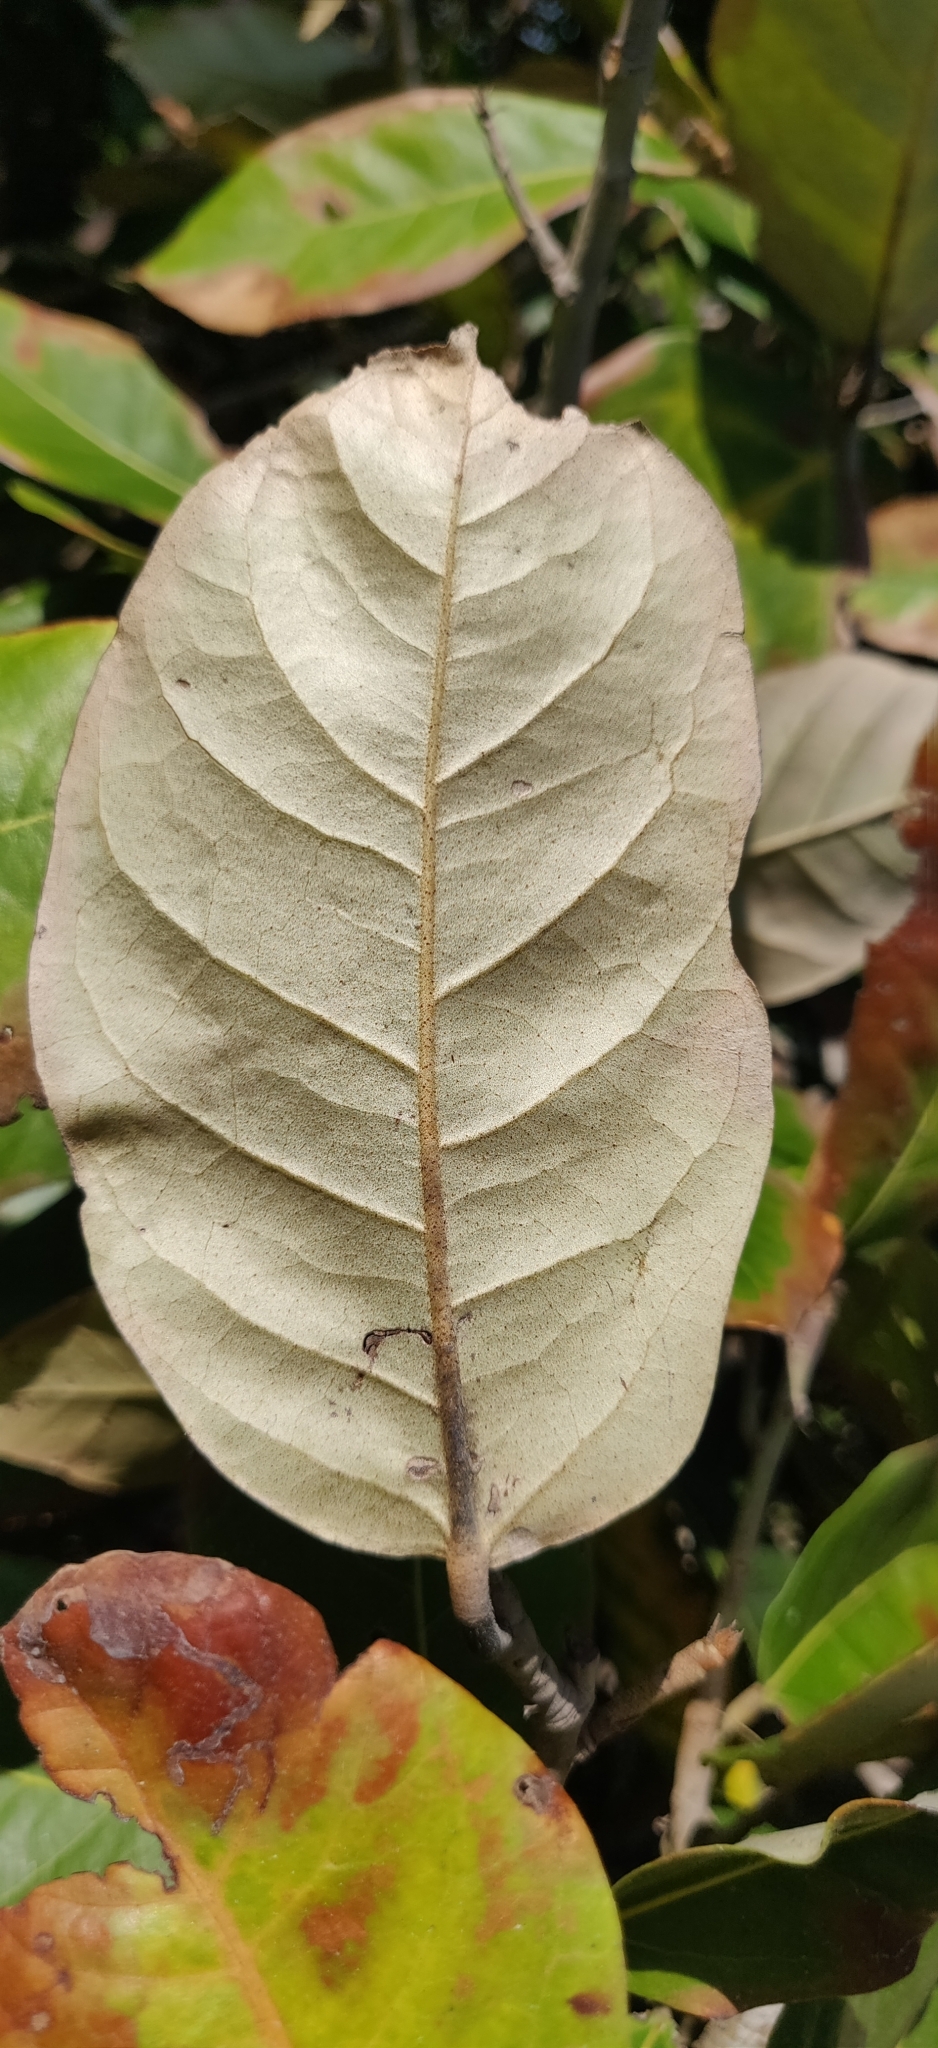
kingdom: Plantae
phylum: Tracheophyta
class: Magnoliopsida
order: Malvales
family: Malvaceae
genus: Heritiera
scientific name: Heritiera littoralis
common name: Looking-glass mangrove
